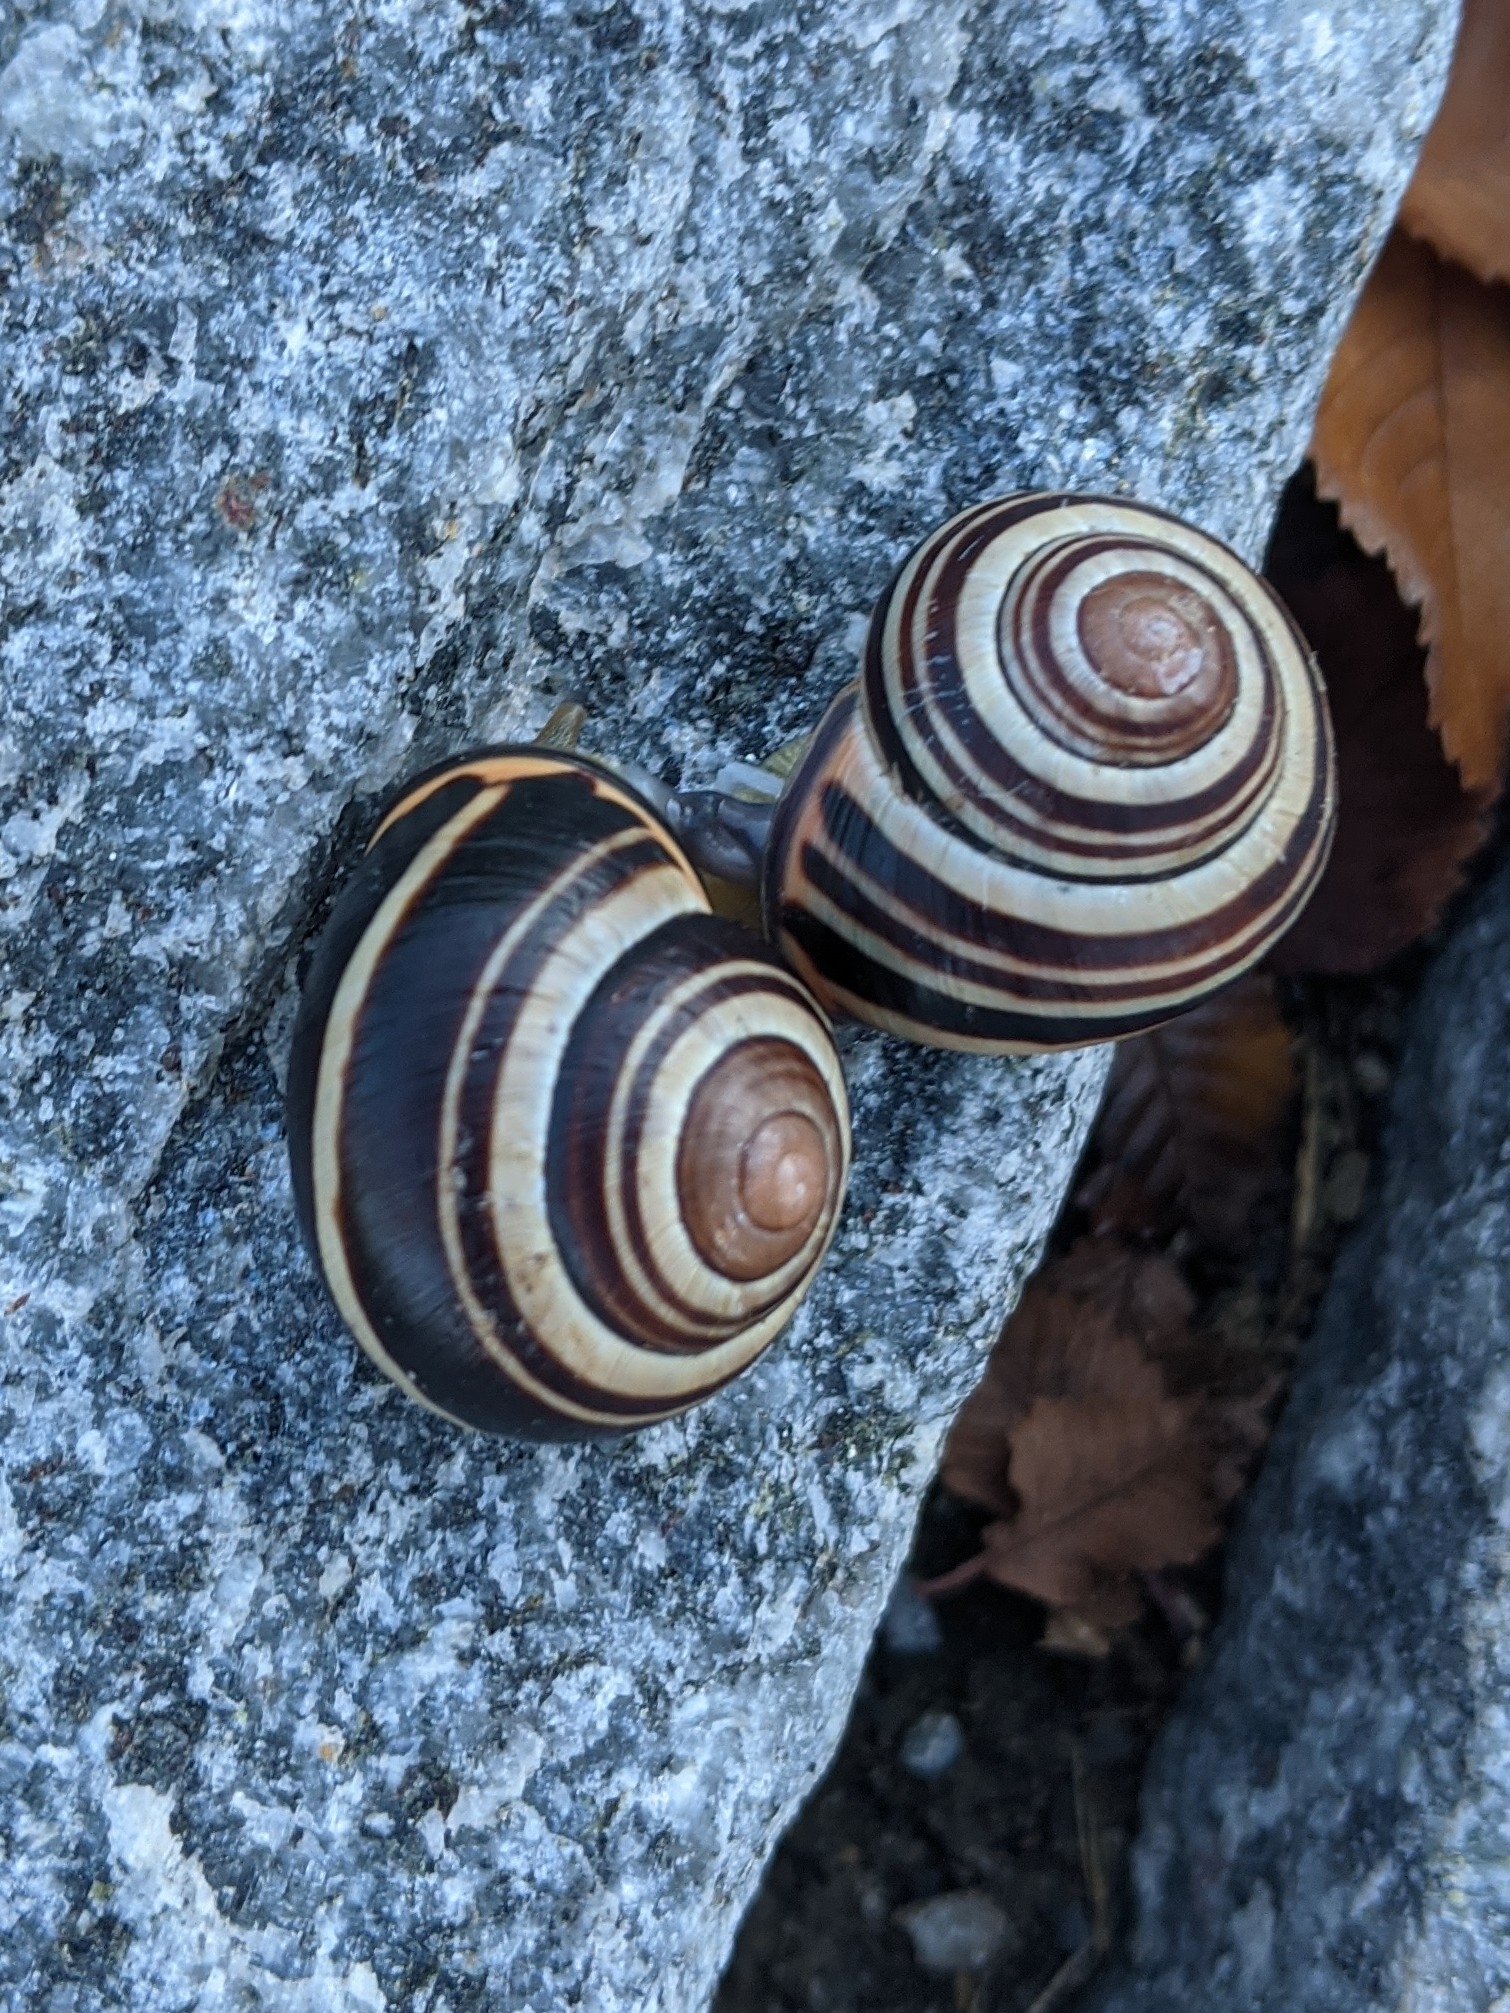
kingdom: Animalia
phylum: Mollusca
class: Gastropoda
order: Stylommatophora
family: Helicidae
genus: Cepaea
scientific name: Cepaea nemoralis
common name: Grovesnail
